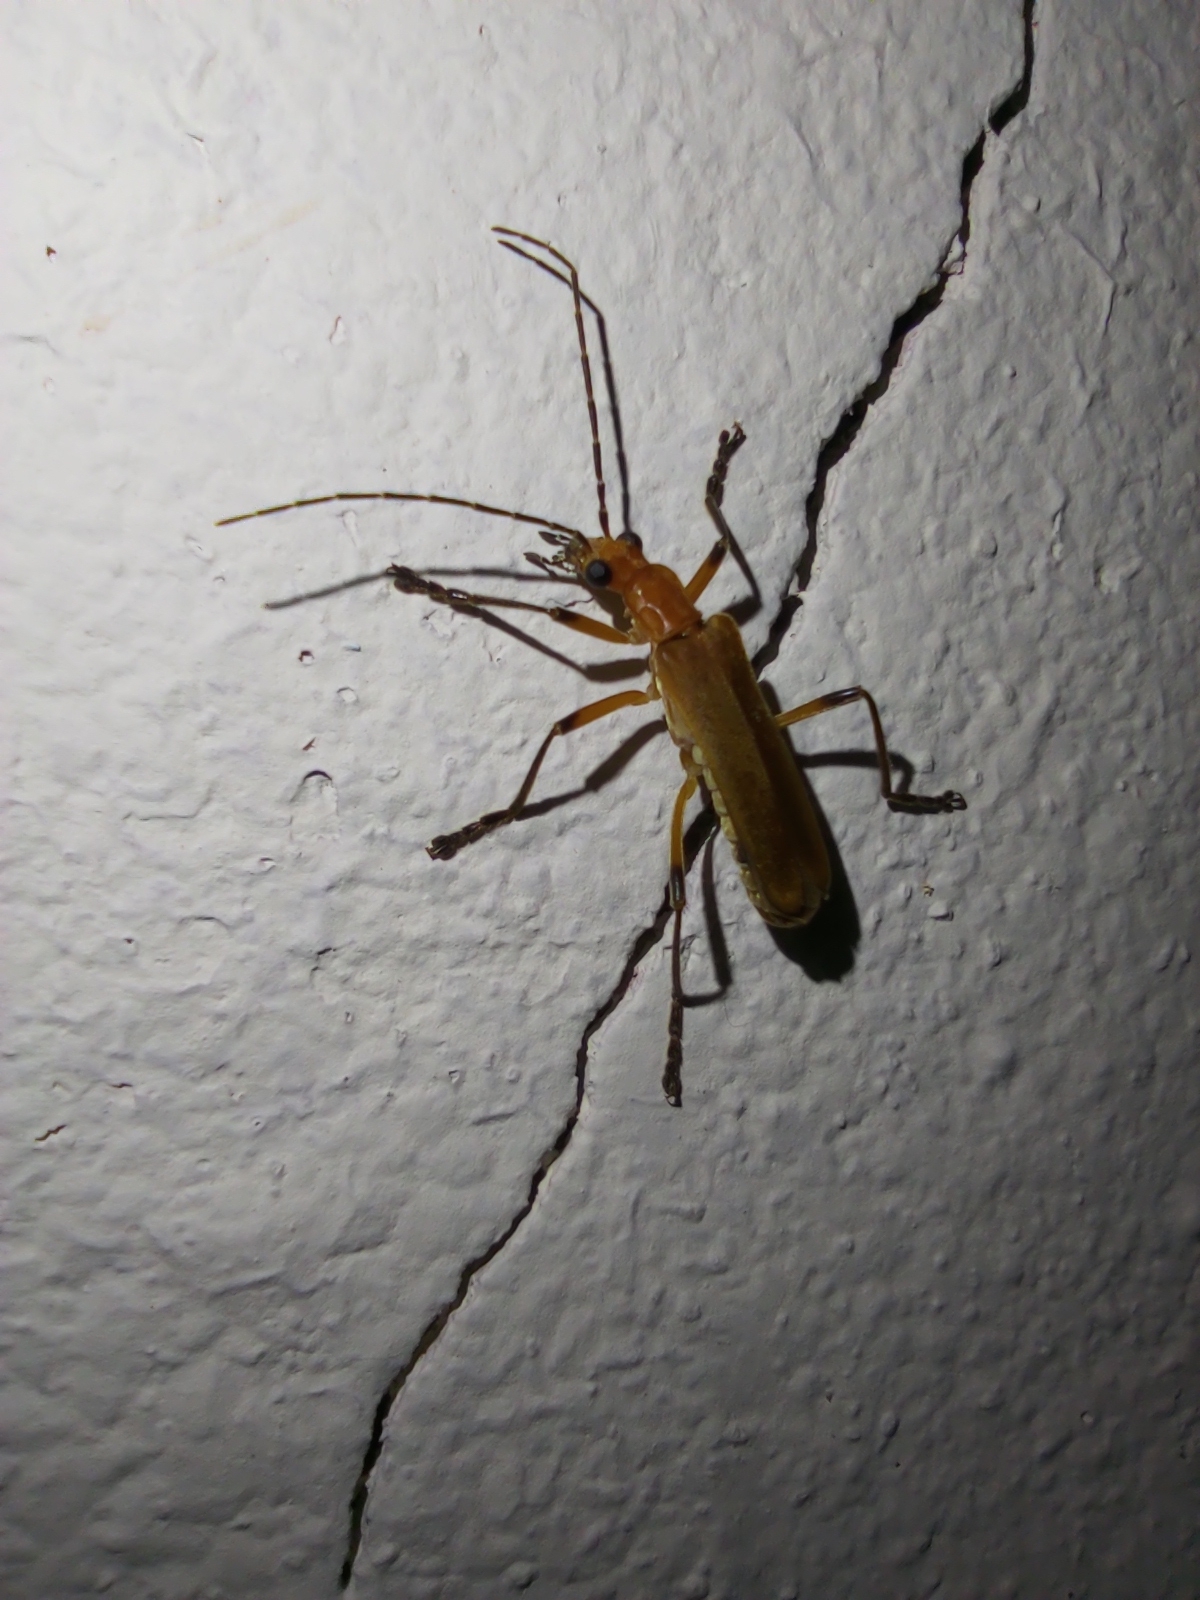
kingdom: Animalia
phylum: Arthropoda
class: Insecta
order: Coleoptera
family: Cantharidae
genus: Chauliognathus
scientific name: Chauliognathus
